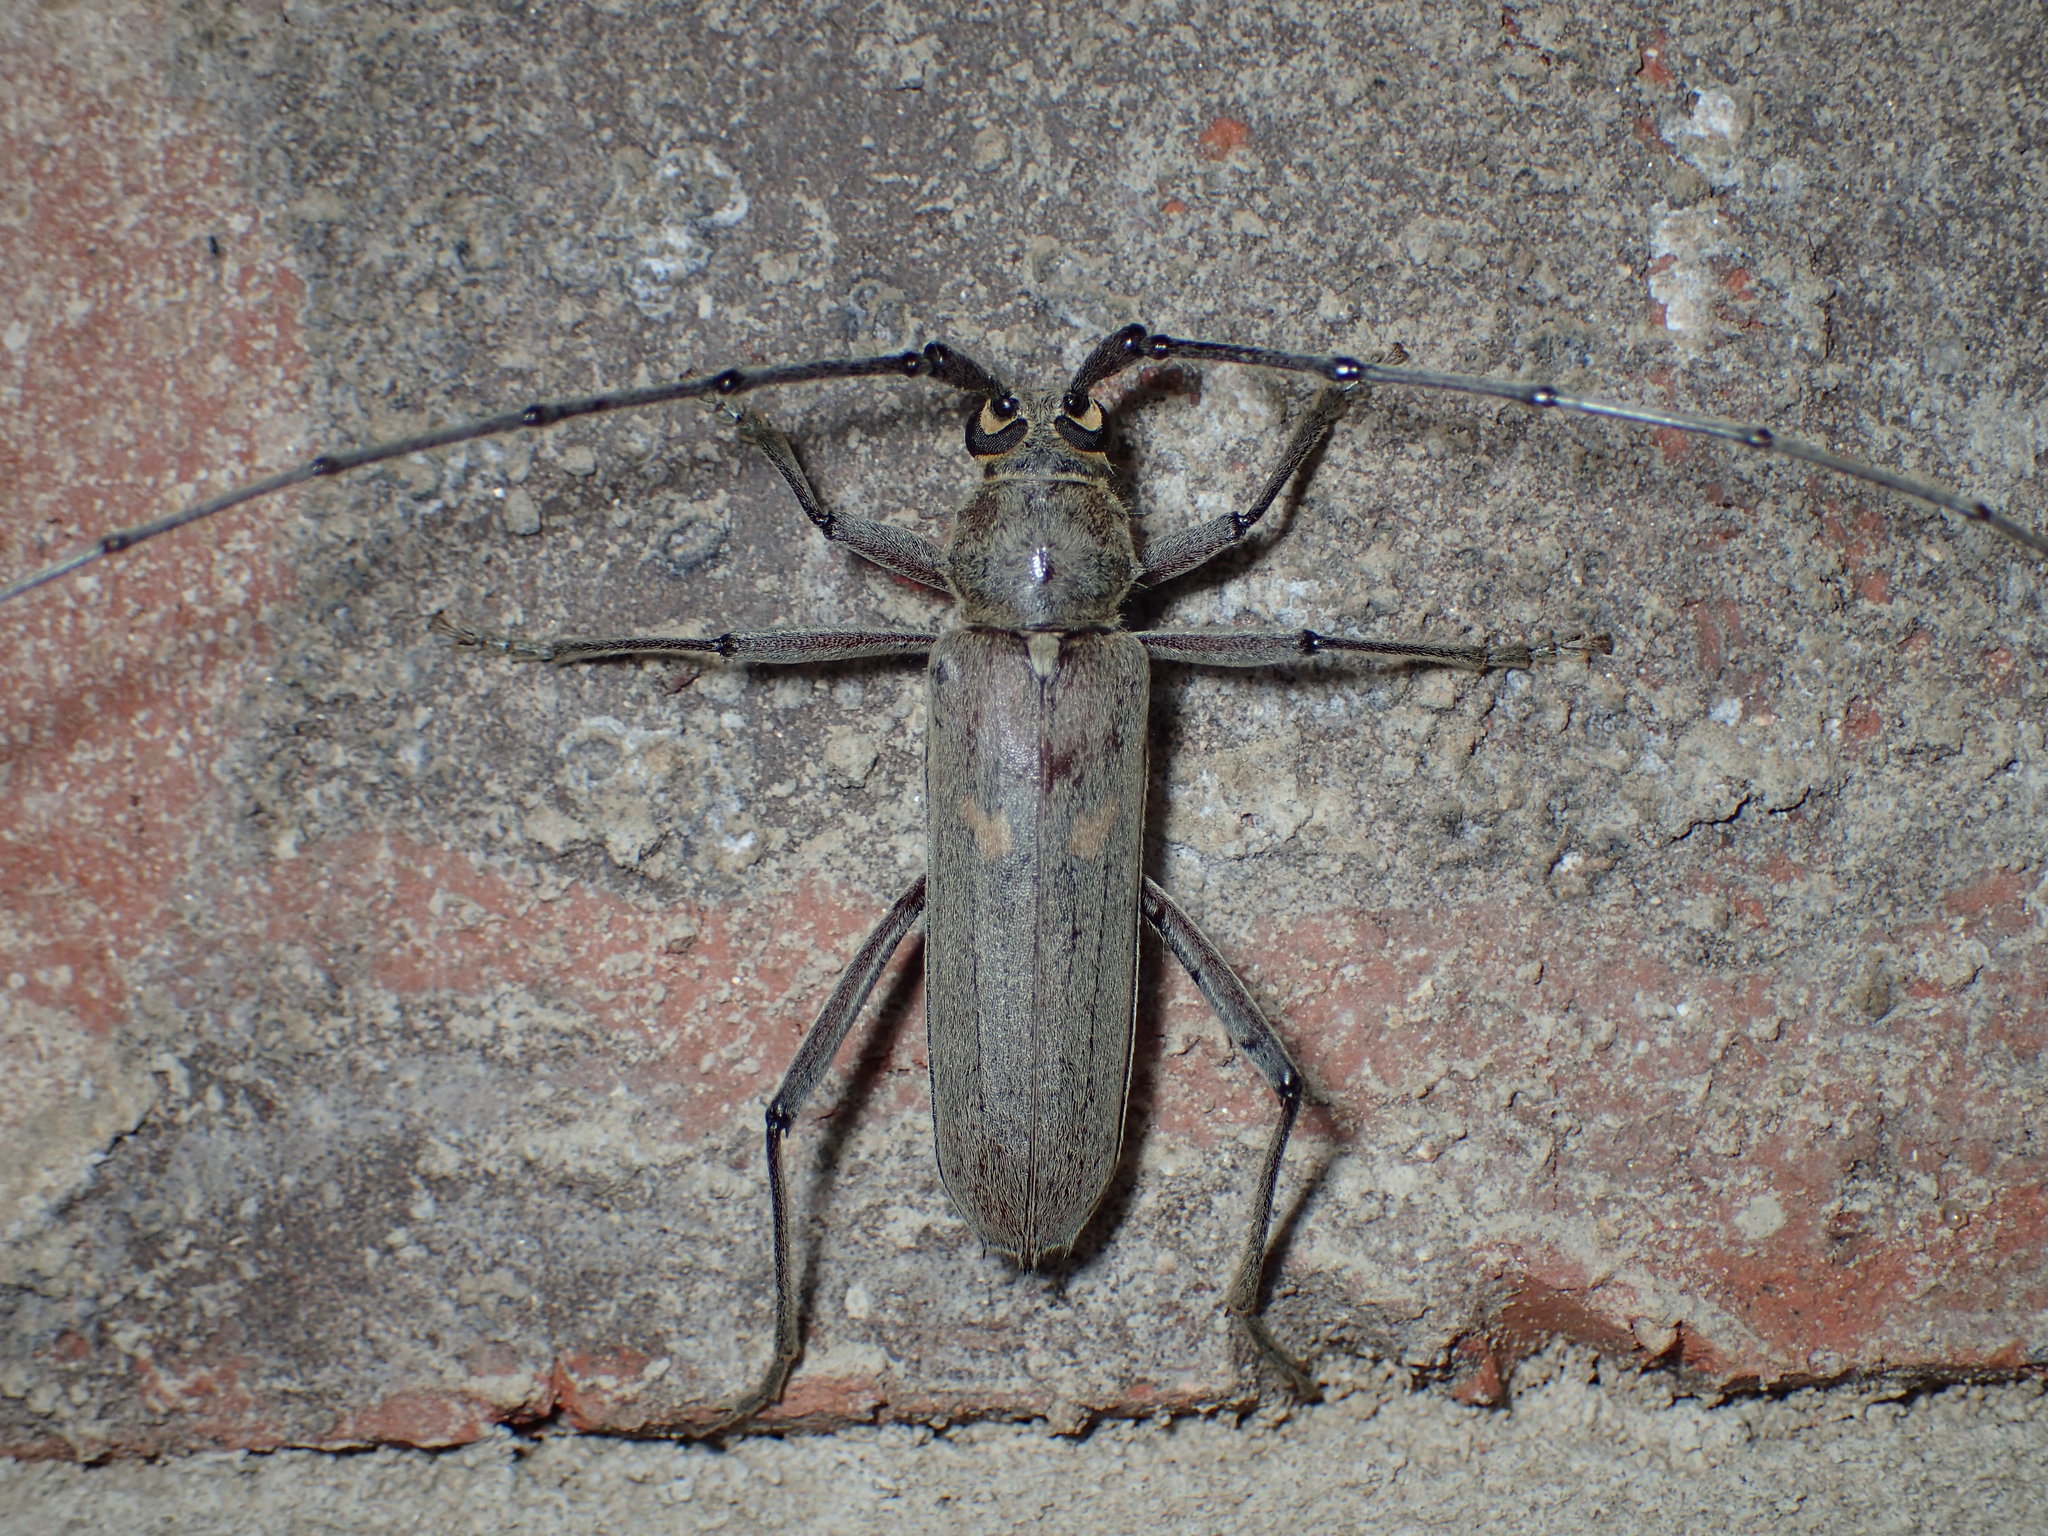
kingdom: Animalia
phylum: Arthropoda
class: Insecta
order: Coleoptera
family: Cerambycidae
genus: Knulliana
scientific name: Knulliana cincta
